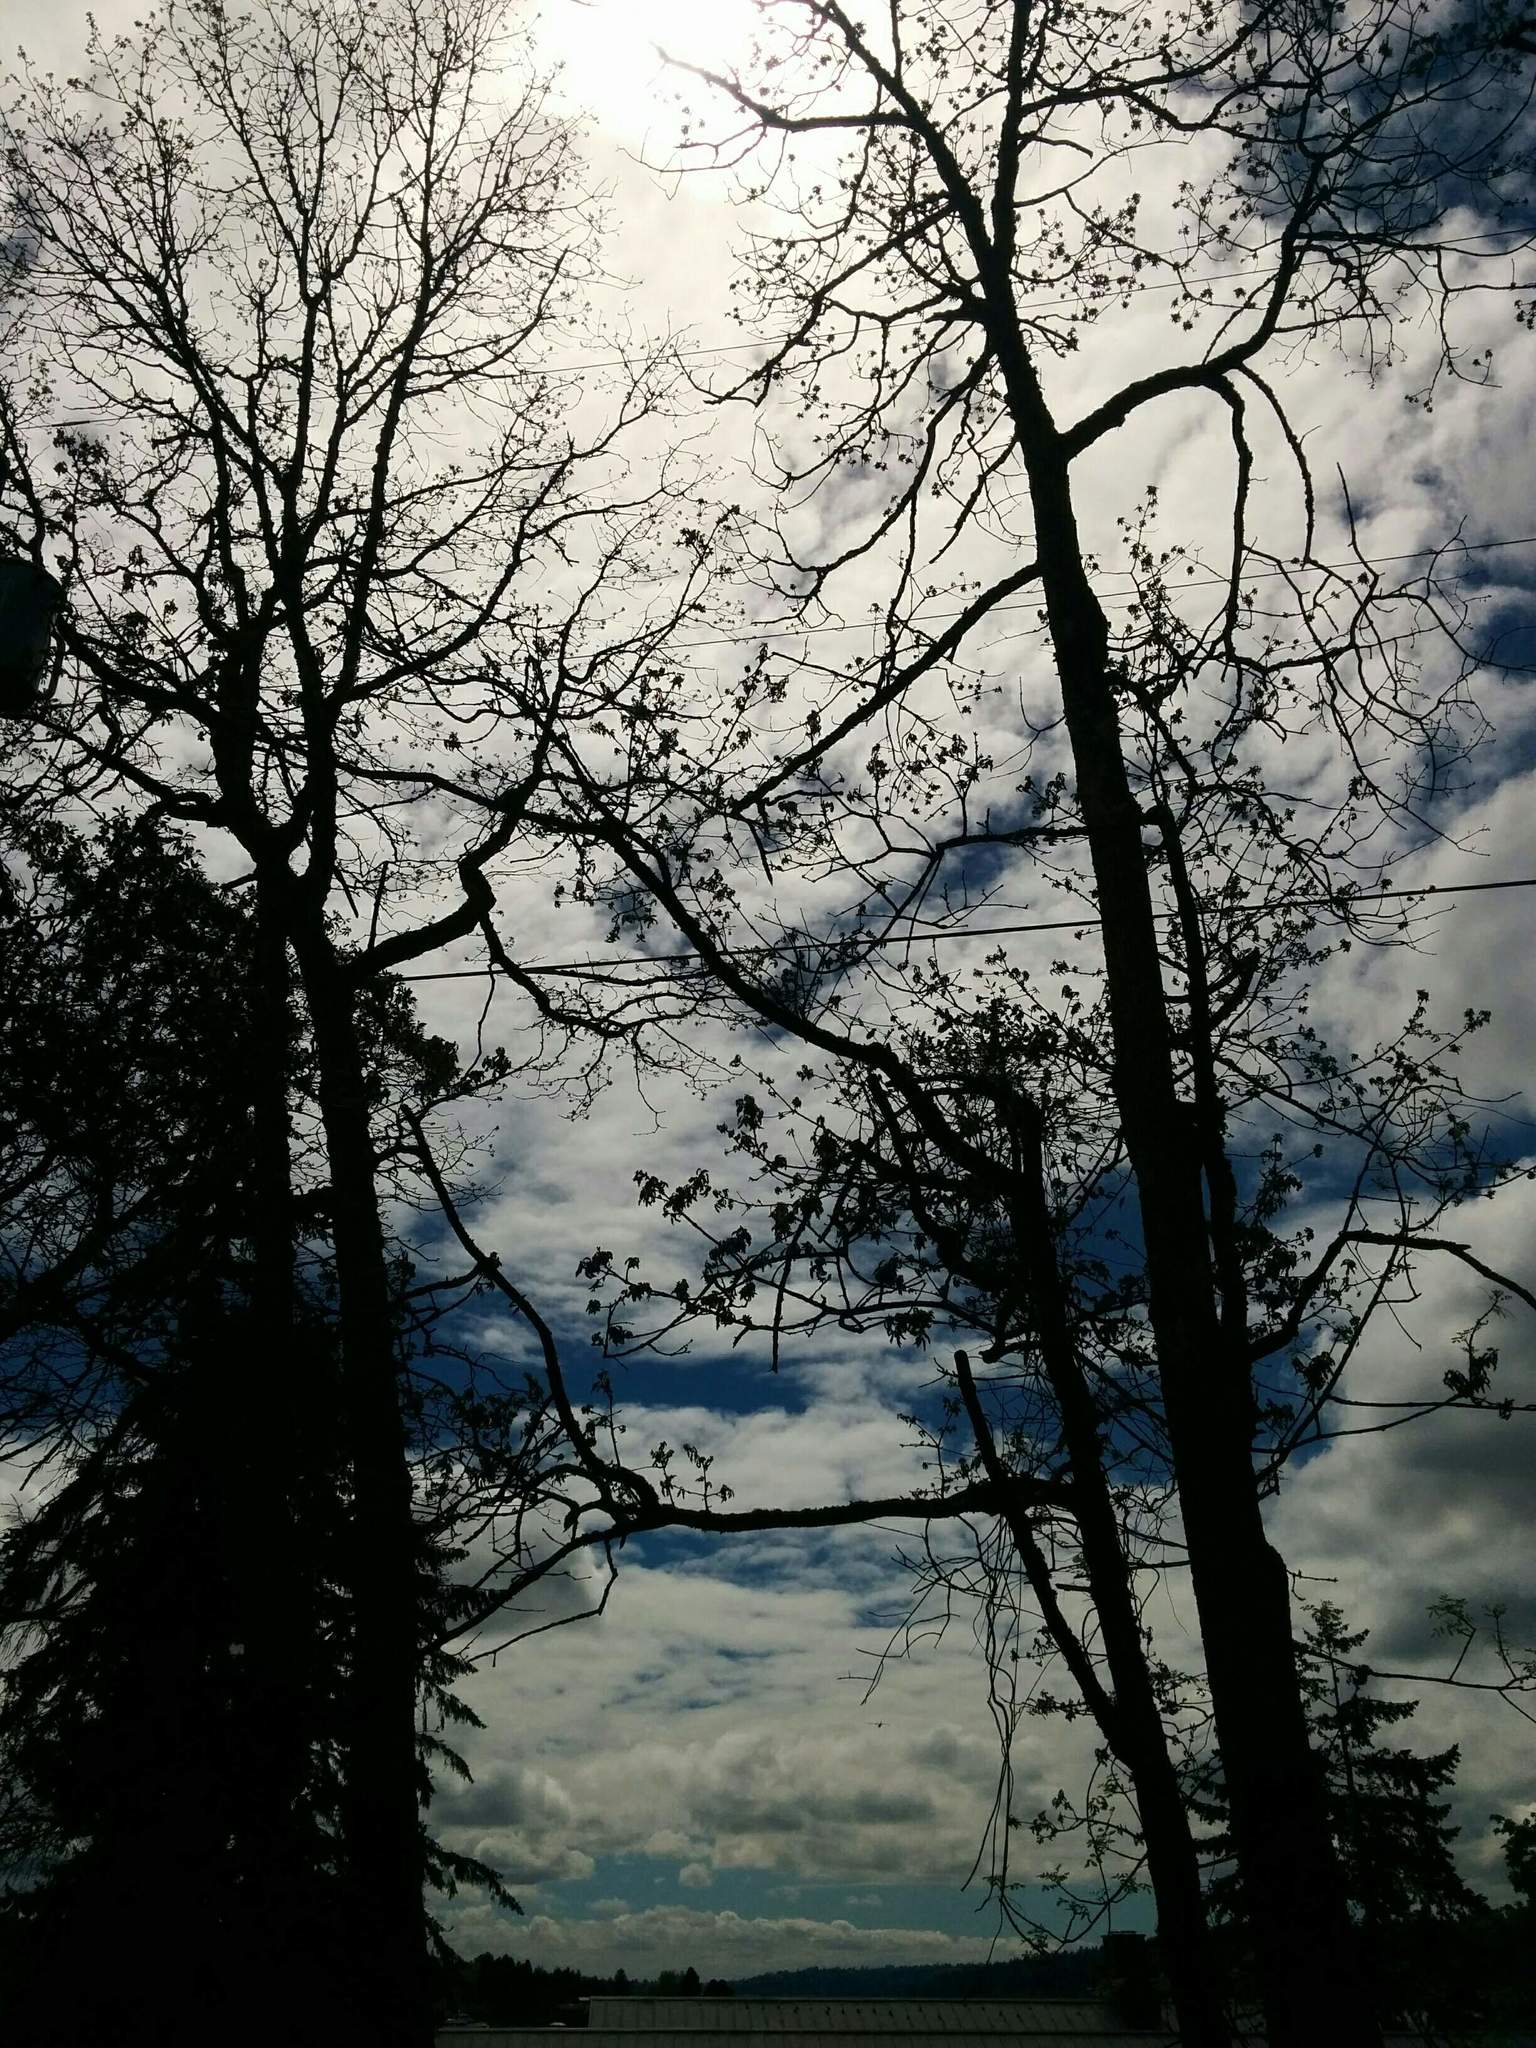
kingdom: Plantae
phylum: Tracheophyta
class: Magnoliopsida
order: Fagales
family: Fagaceae
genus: Quercus
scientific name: Quercus garryana
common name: Garry oak
